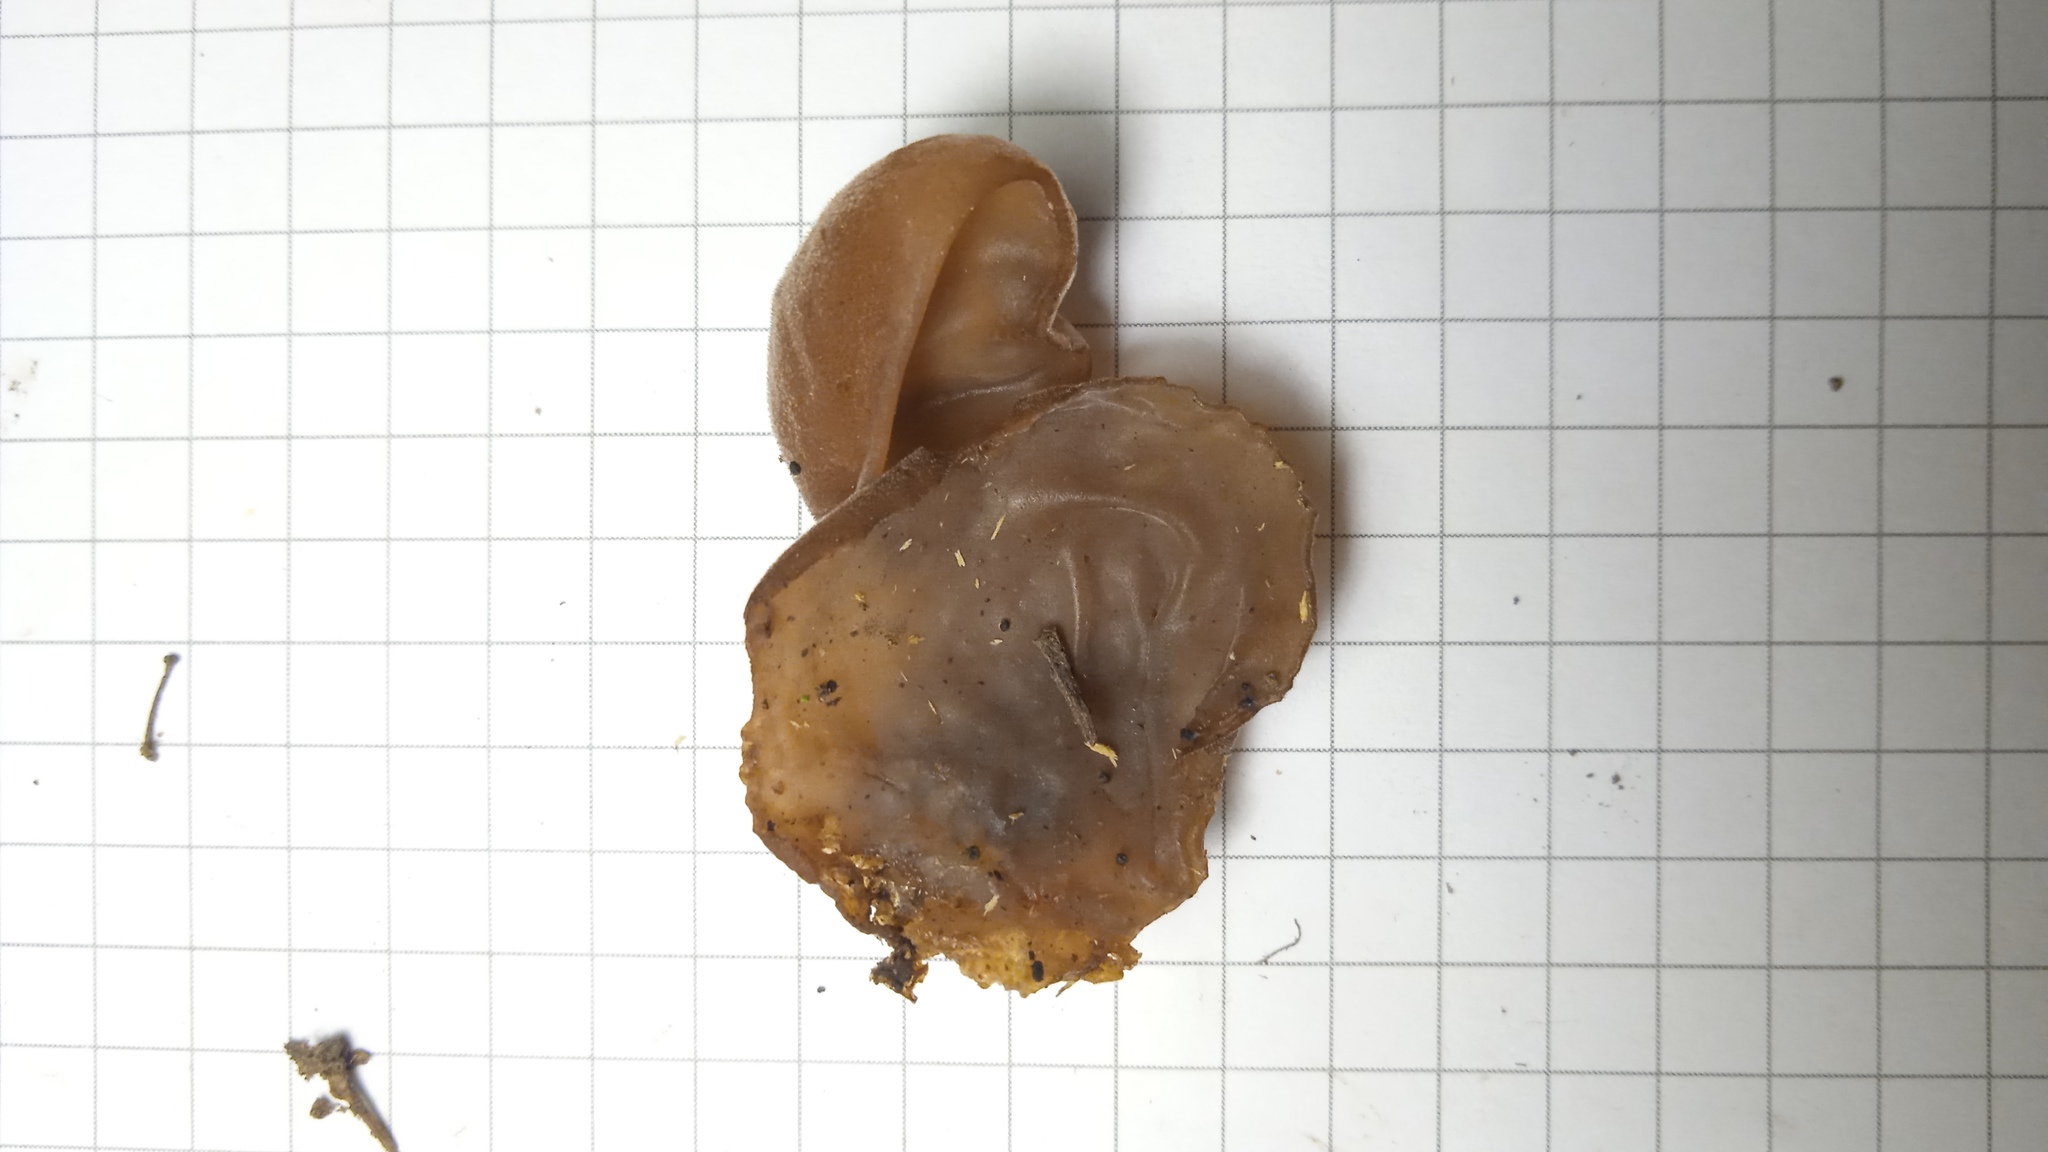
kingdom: Fungi
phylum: Basidiomycota
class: Agaricomycetes
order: Auriculariales
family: Auriculariaceae
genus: Auricularia
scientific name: Auricularia auricula-judae
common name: Jelly ear
